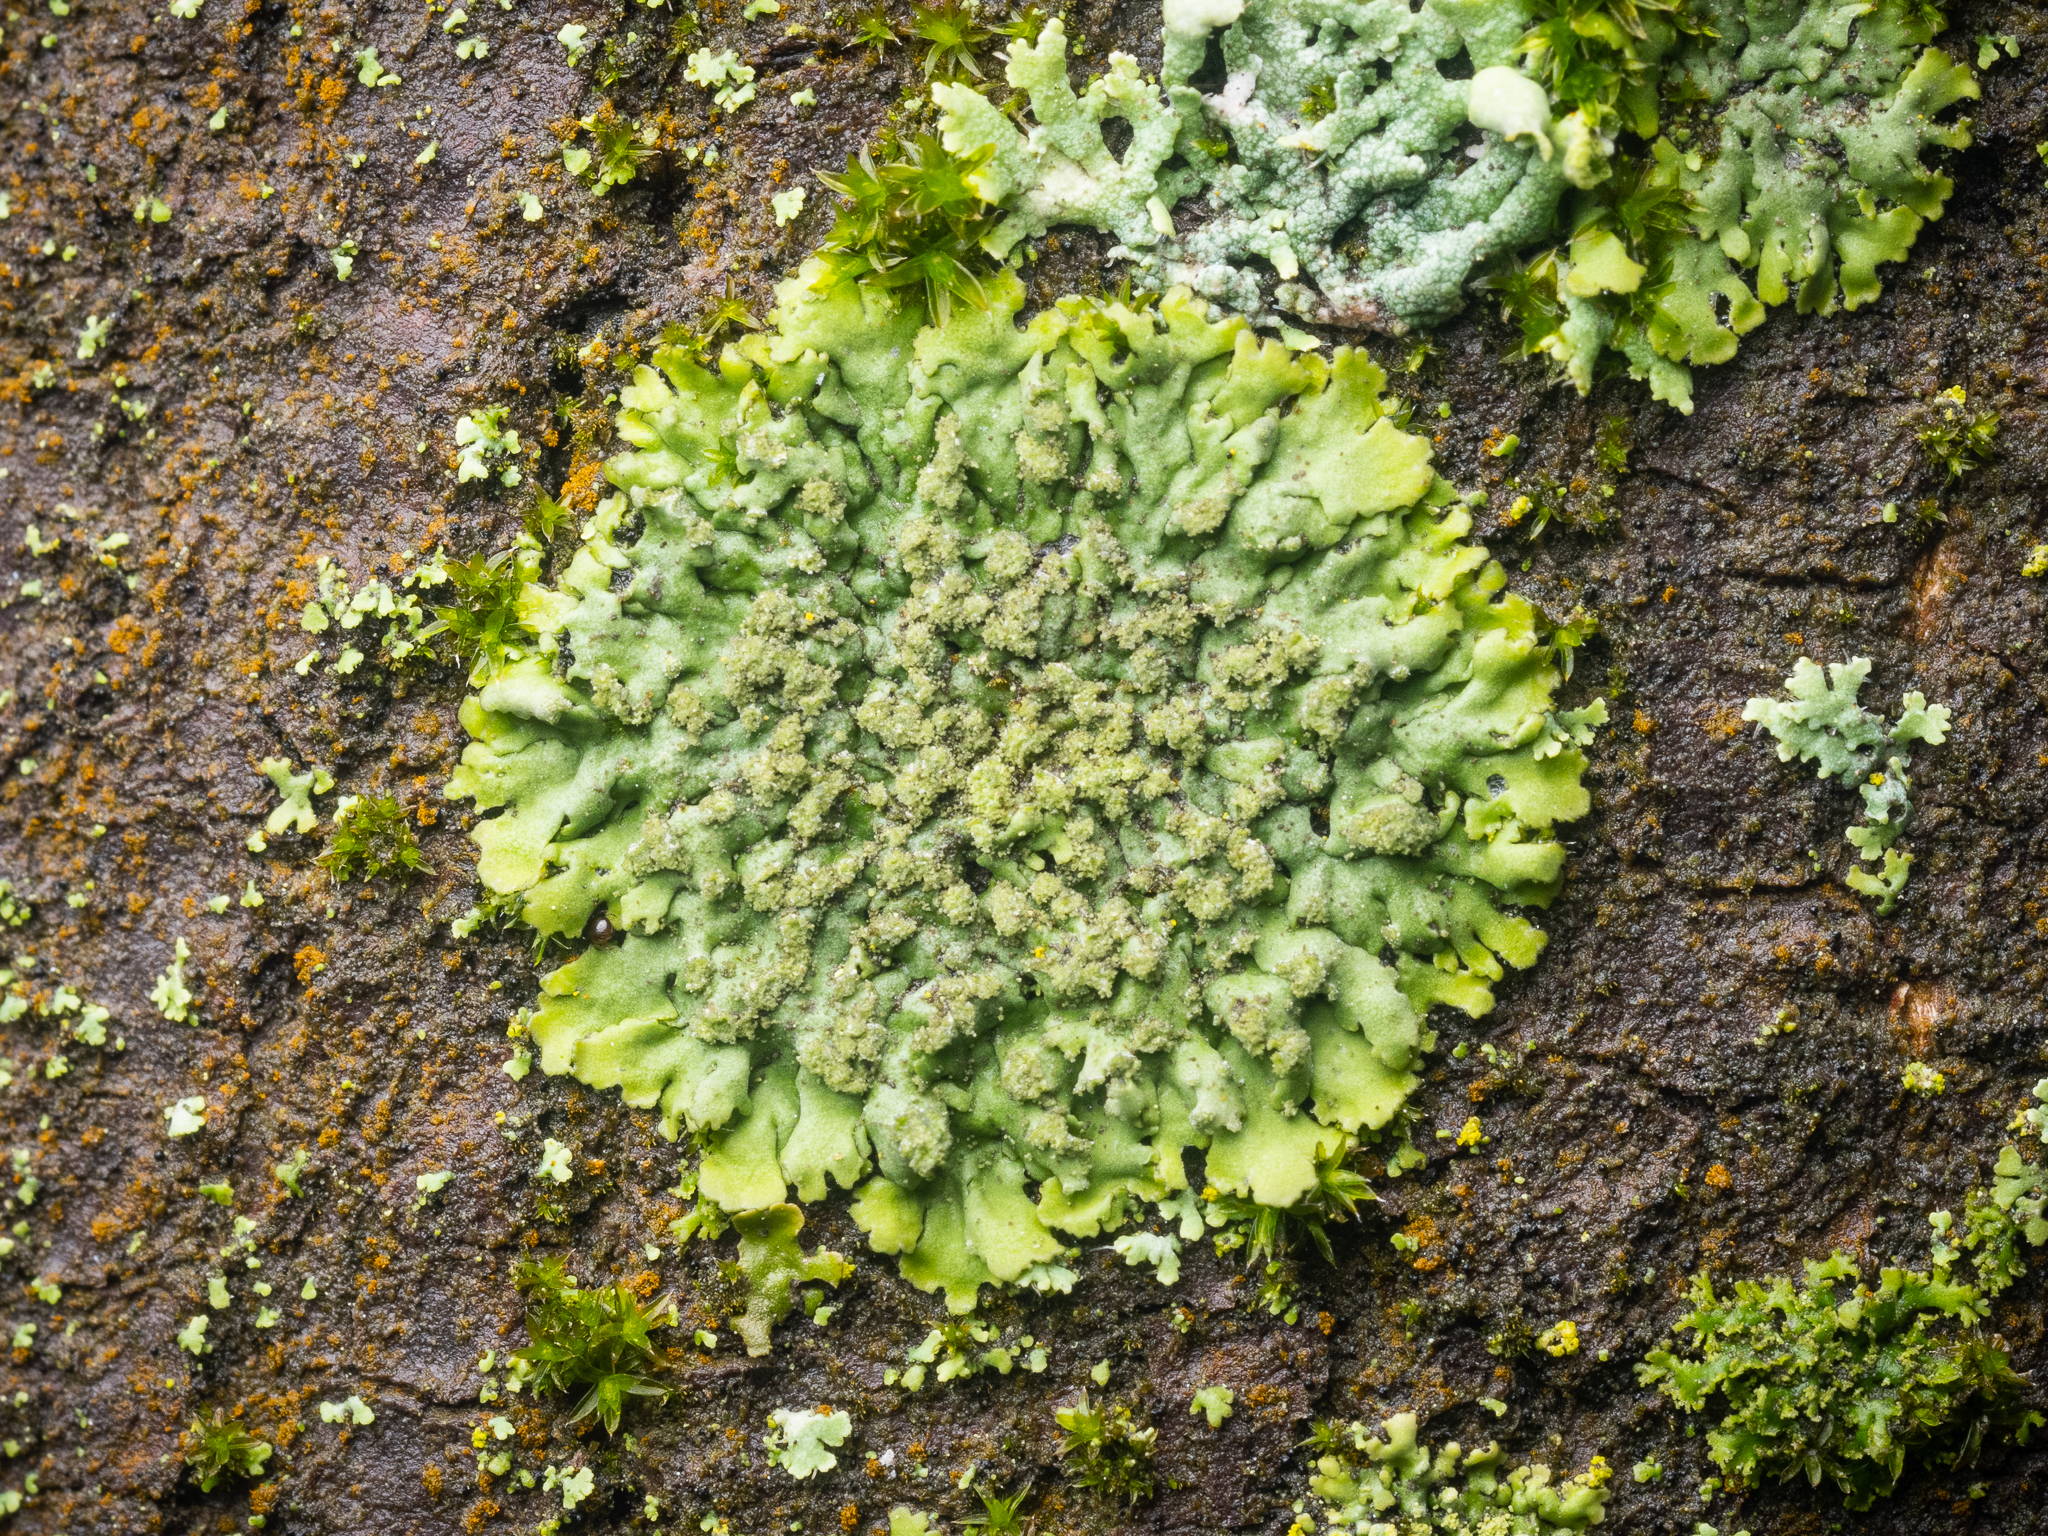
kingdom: Fungi
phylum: Ascomycota
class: Lecanoromycetes
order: Caliciales
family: Physciaceae
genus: Phaeophyscia
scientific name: Phaeophyscia orbicularis
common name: Mealy shadow lichen
